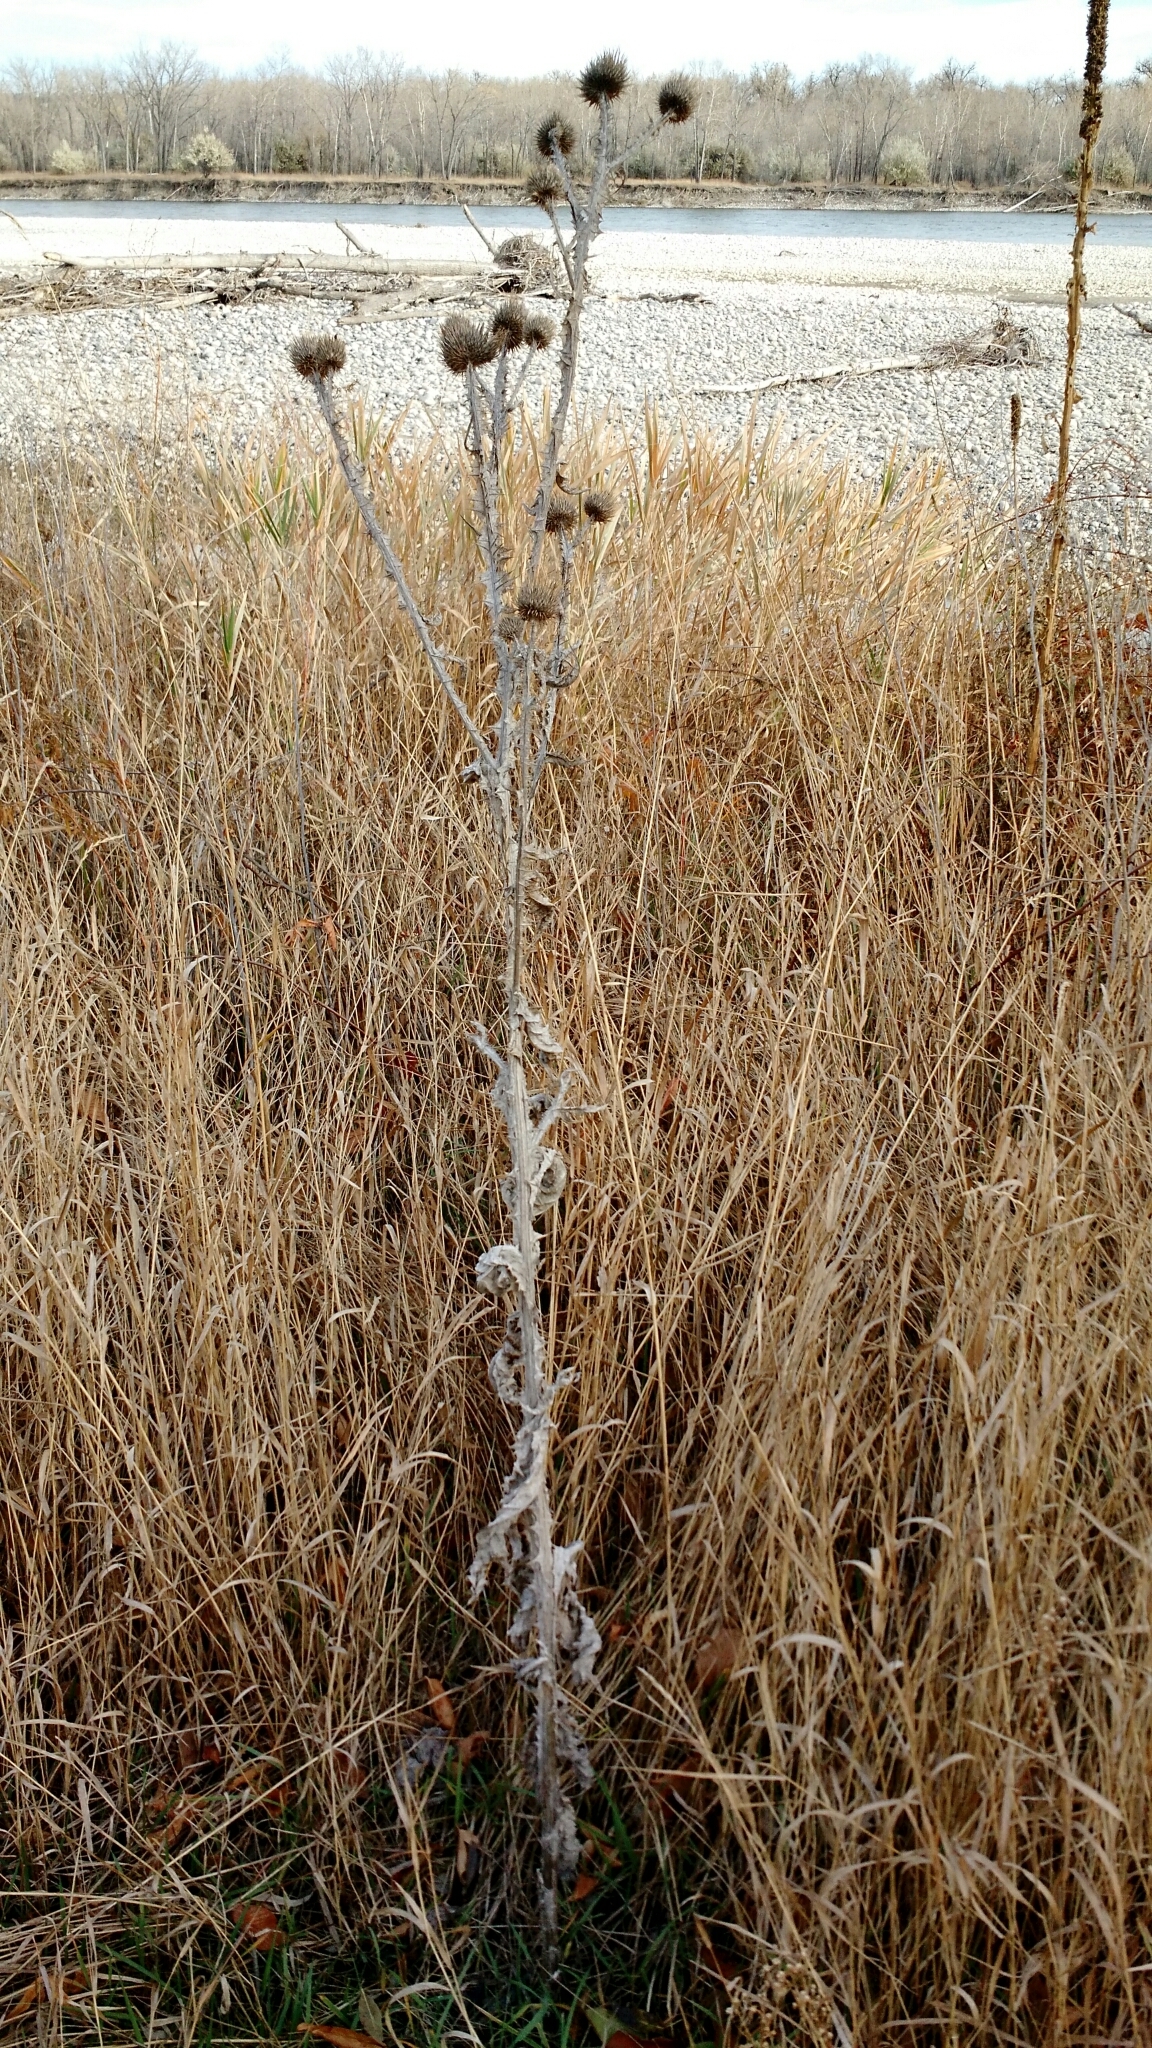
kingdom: Plantae
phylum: Tracheophyta
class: Magnoliopsida
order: Asterales
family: Asteraceae
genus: Onopordum
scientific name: Onopordum acanthium
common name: Scotch thistle
